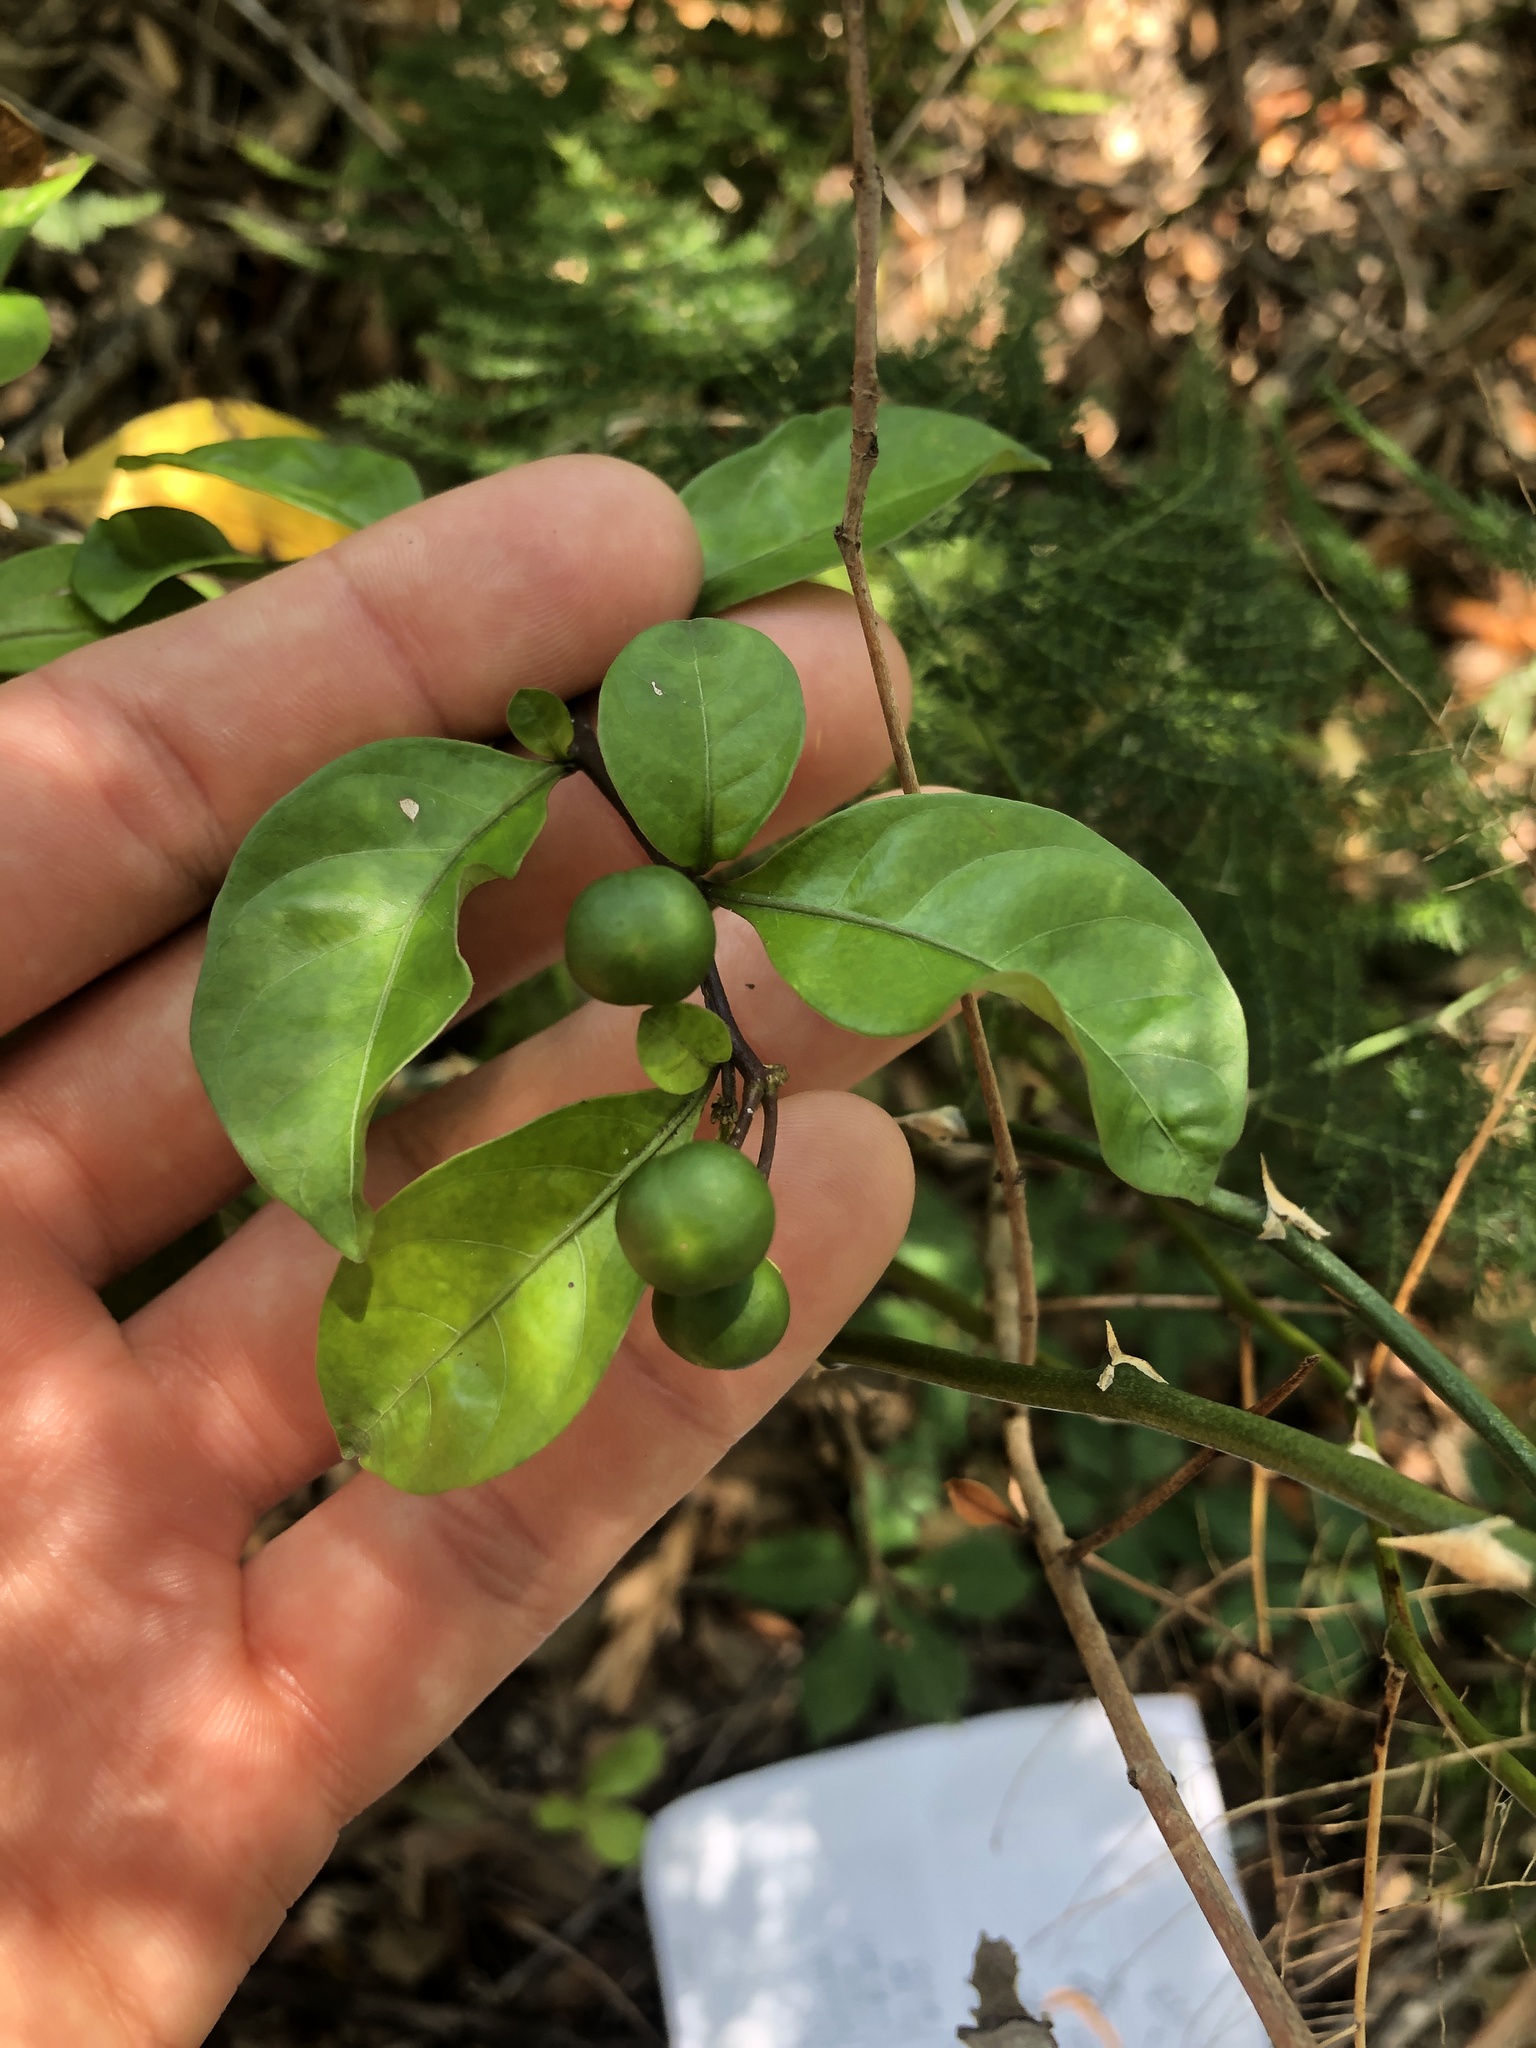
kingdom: Plantae
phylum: Tracheophyta
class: Magnoliopsida
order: Solanales
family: Solanaceae
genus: Solanum
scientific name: Solanum diphyllum
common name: Twoleaf nightshade
